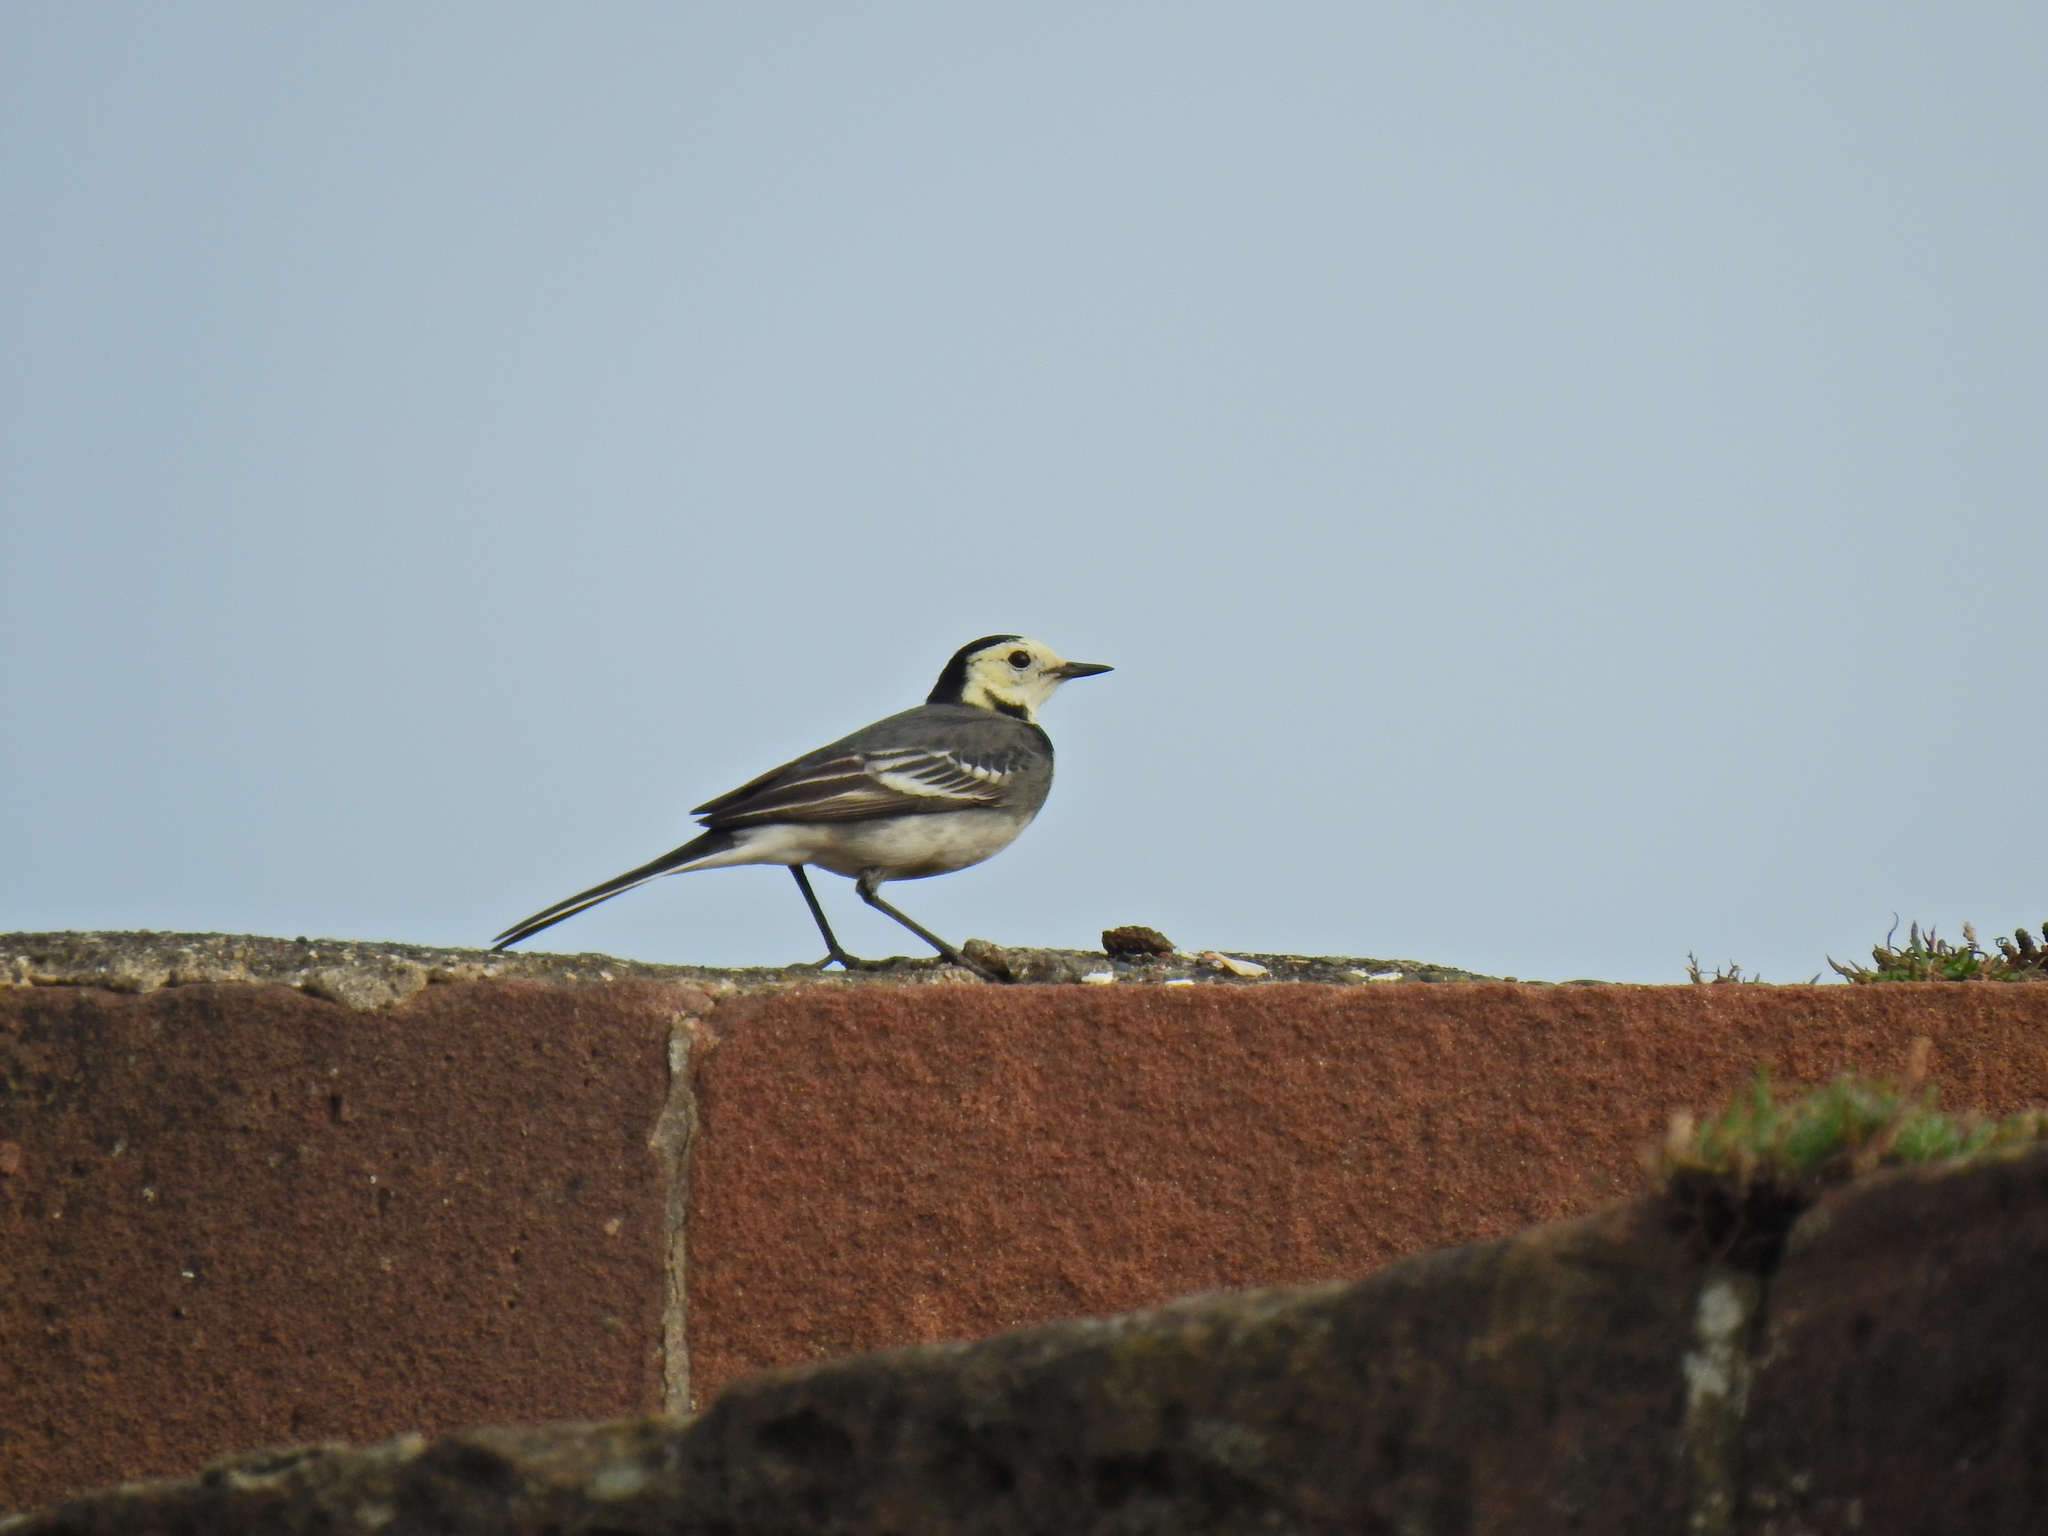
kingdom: Animalia
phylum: Chordata
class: Aves
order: Passeriformes
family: Motacillidae
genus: Motacilla
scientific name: Motacilla alba
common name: White wagtail
